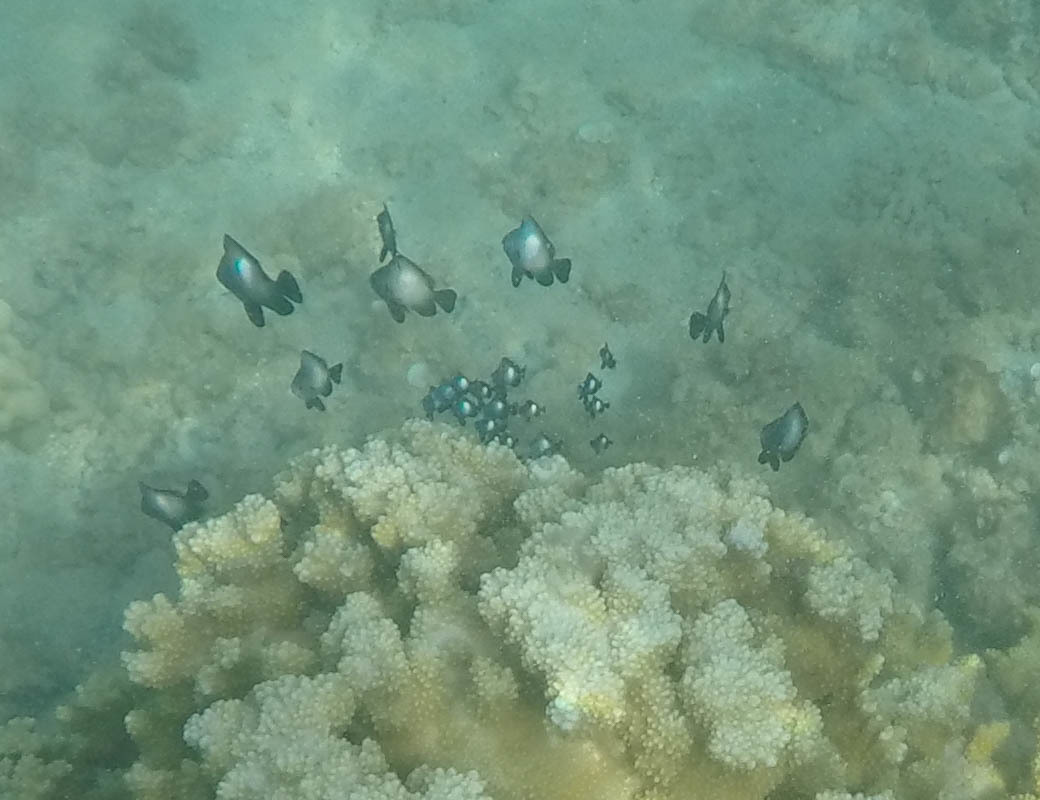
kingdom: Animalia
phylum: Chordata
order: Perciformes
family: Pomacentridae
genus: Dascyllus
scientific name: Dascyllus albisella
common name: Hawaiian dascyllus
